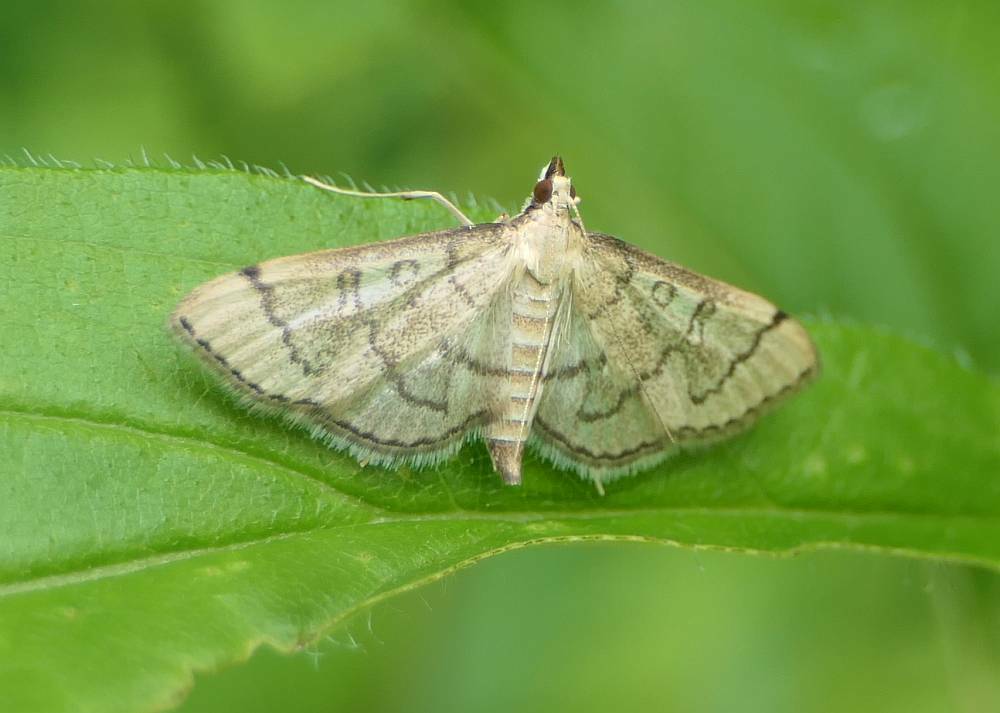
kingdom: Animalia
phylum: Arthropoda
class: Insecta
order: Lepidoptera
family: Crambidae
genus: Lamprosema
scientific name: Lamprosema Blepharomastix ranalis
